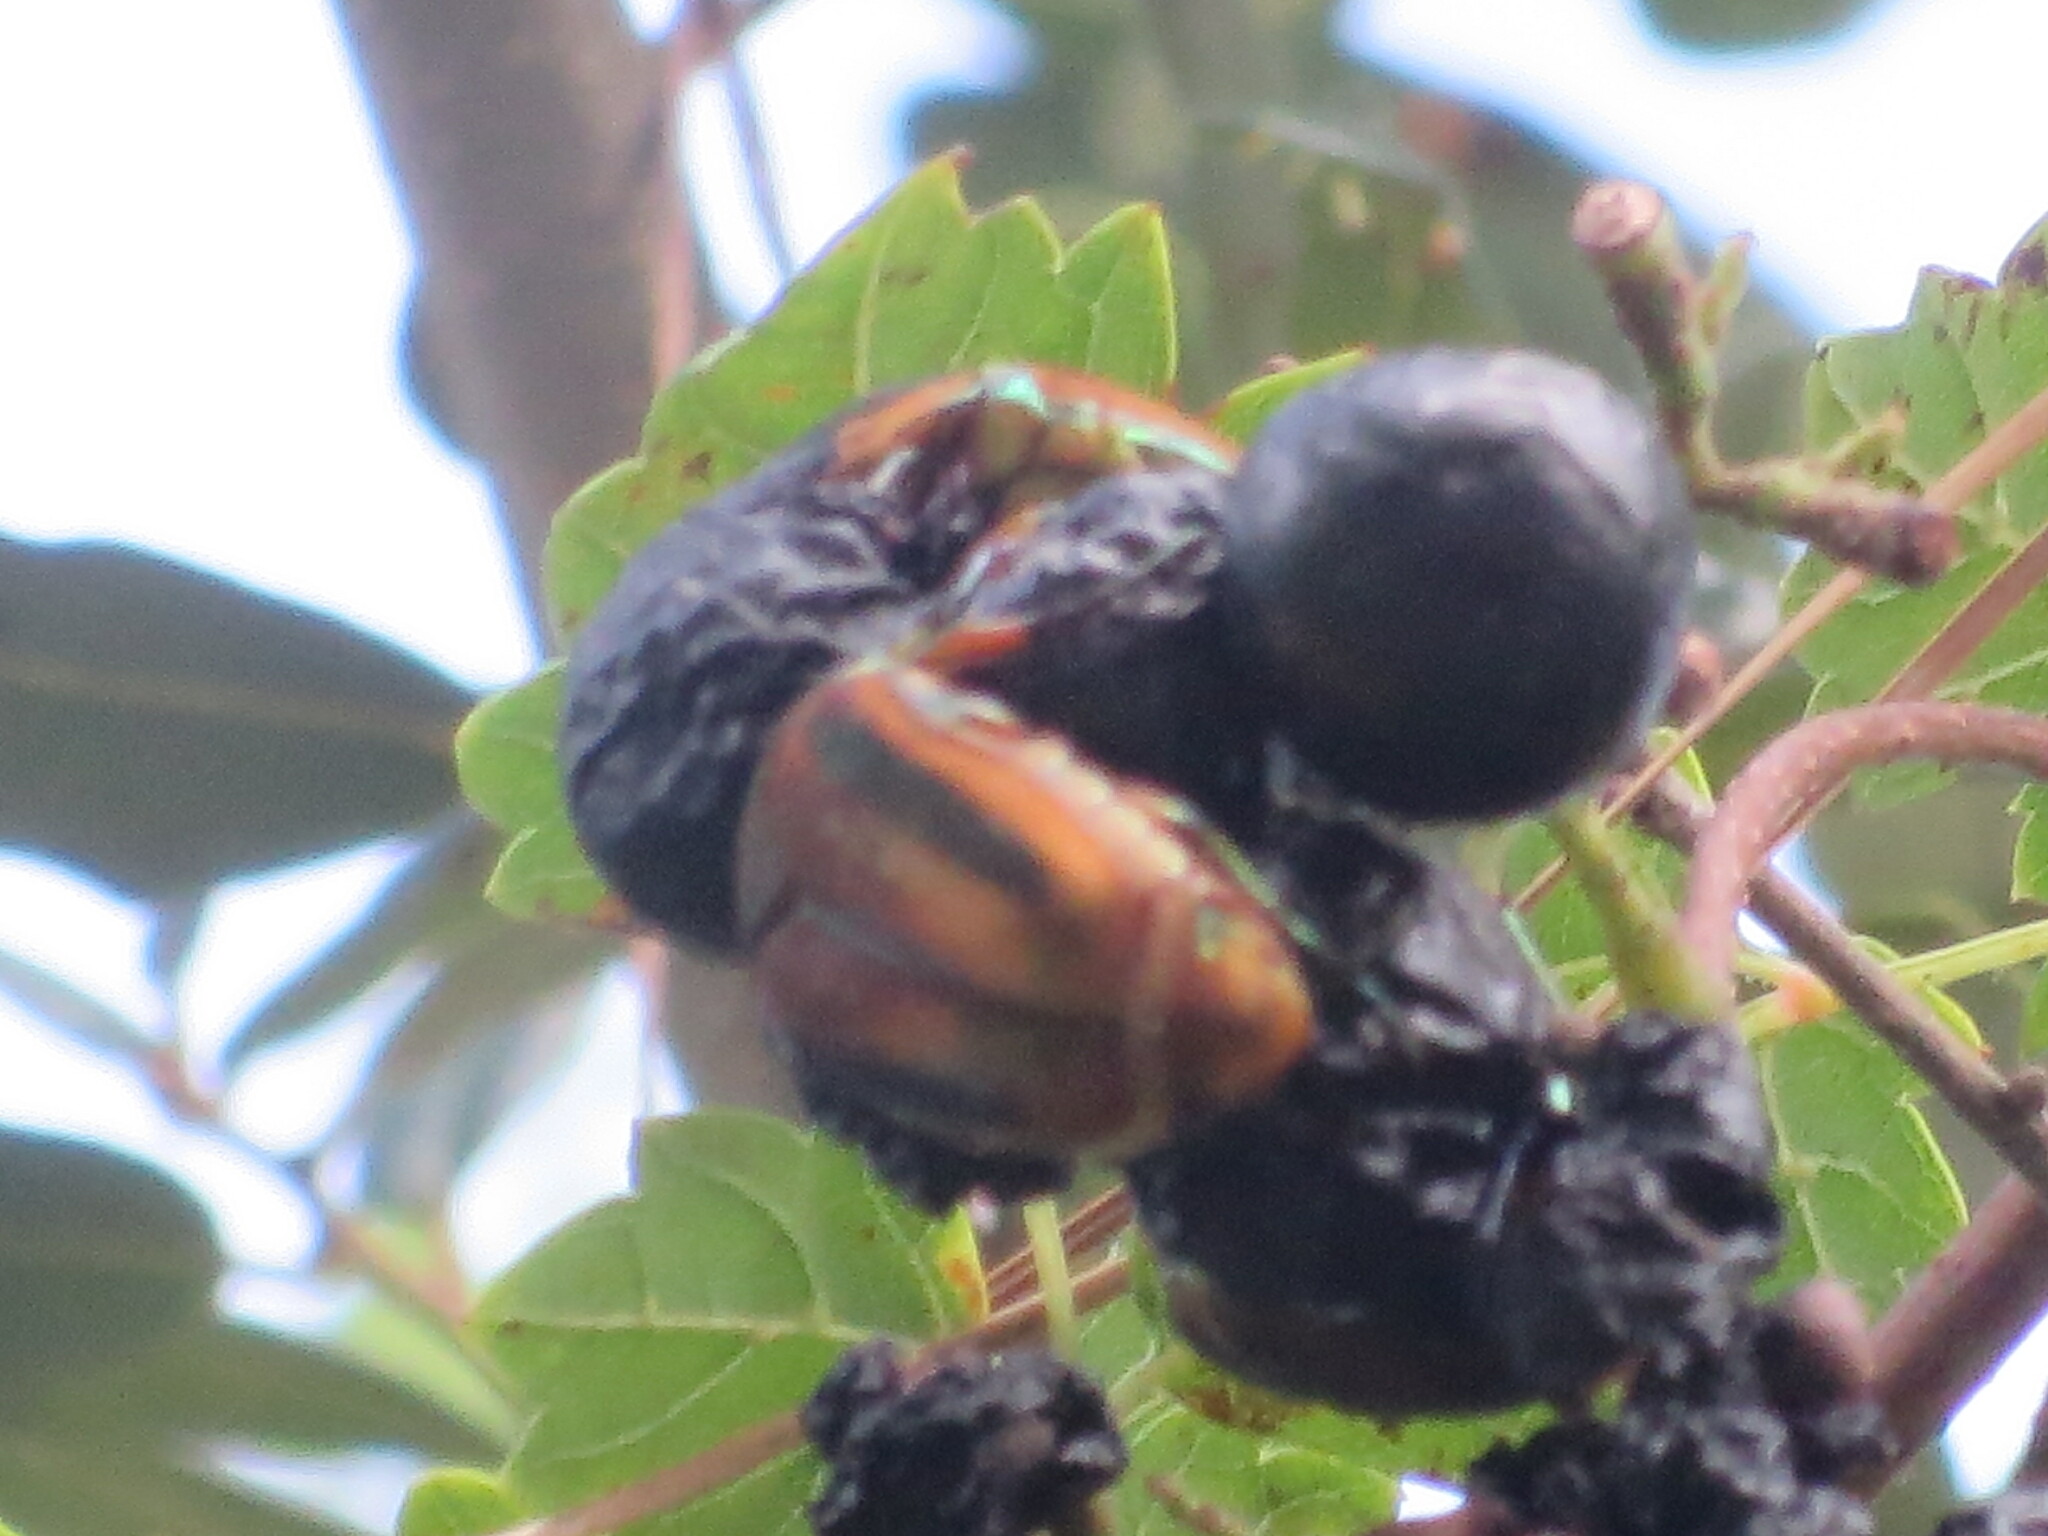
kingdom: Animalia
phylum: Arthropoda
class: Insecta
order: Coleoptera
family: Scarabaeidae
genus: Cotinis
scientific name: Cotinis nitida
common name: Common green june beetle
